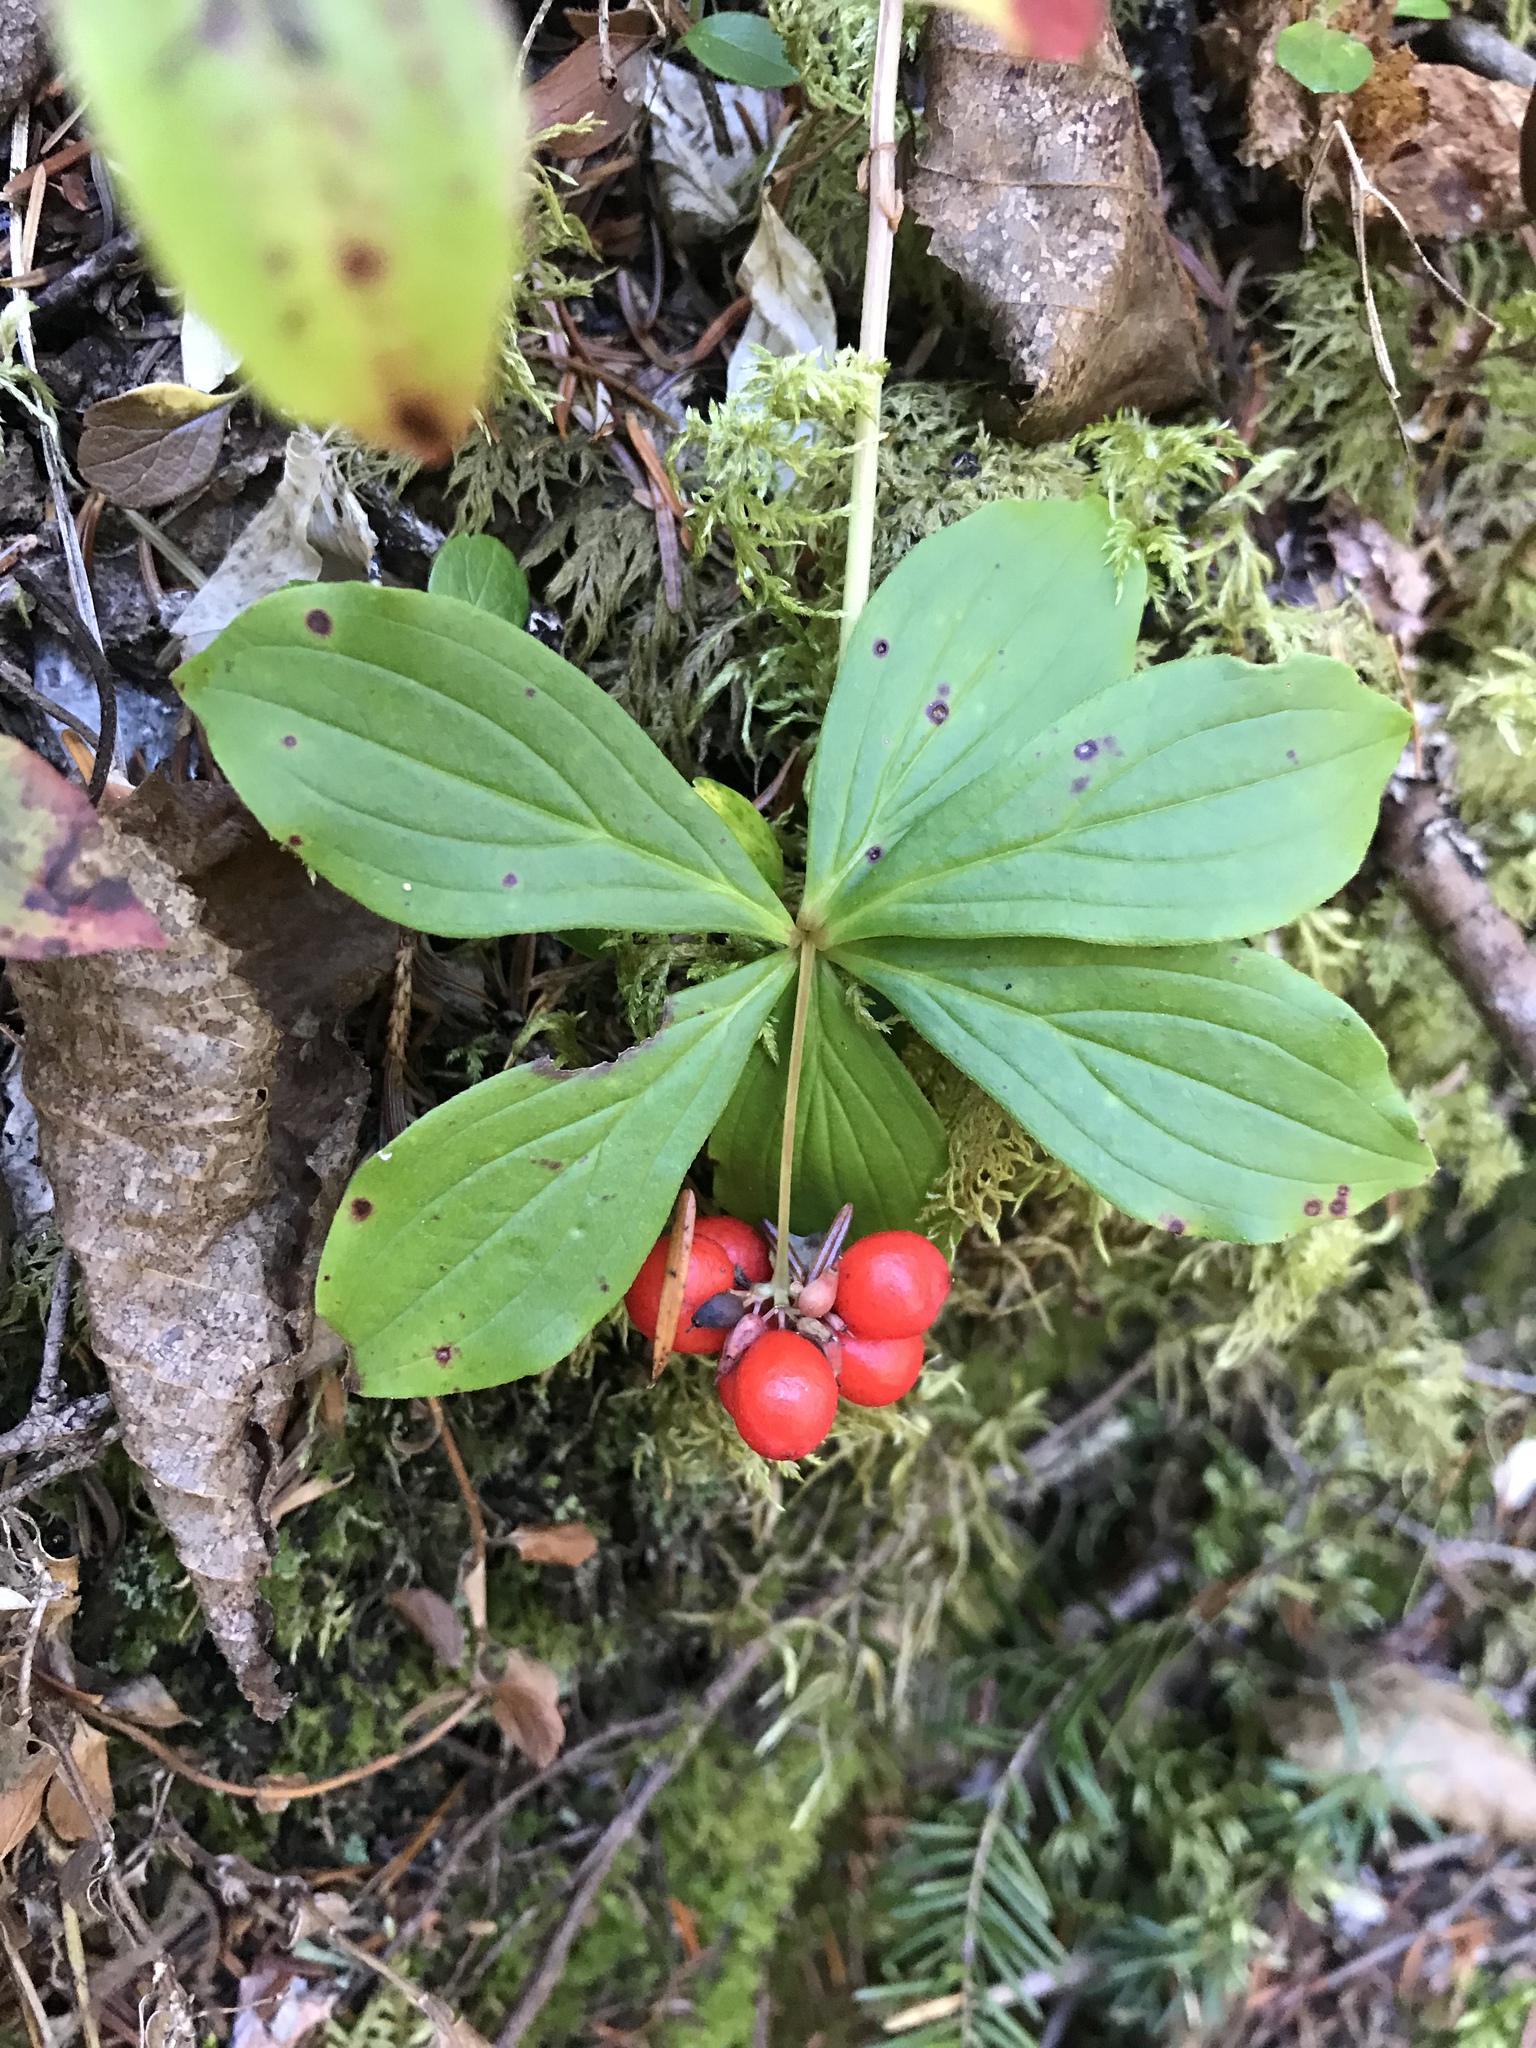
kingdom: Plantae
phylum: Tracheophyta
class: Magnoliopsida
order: Cornales
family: Cornaceae
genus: Cornus
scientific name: Cornus canadensis
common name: Creeping dogwood
